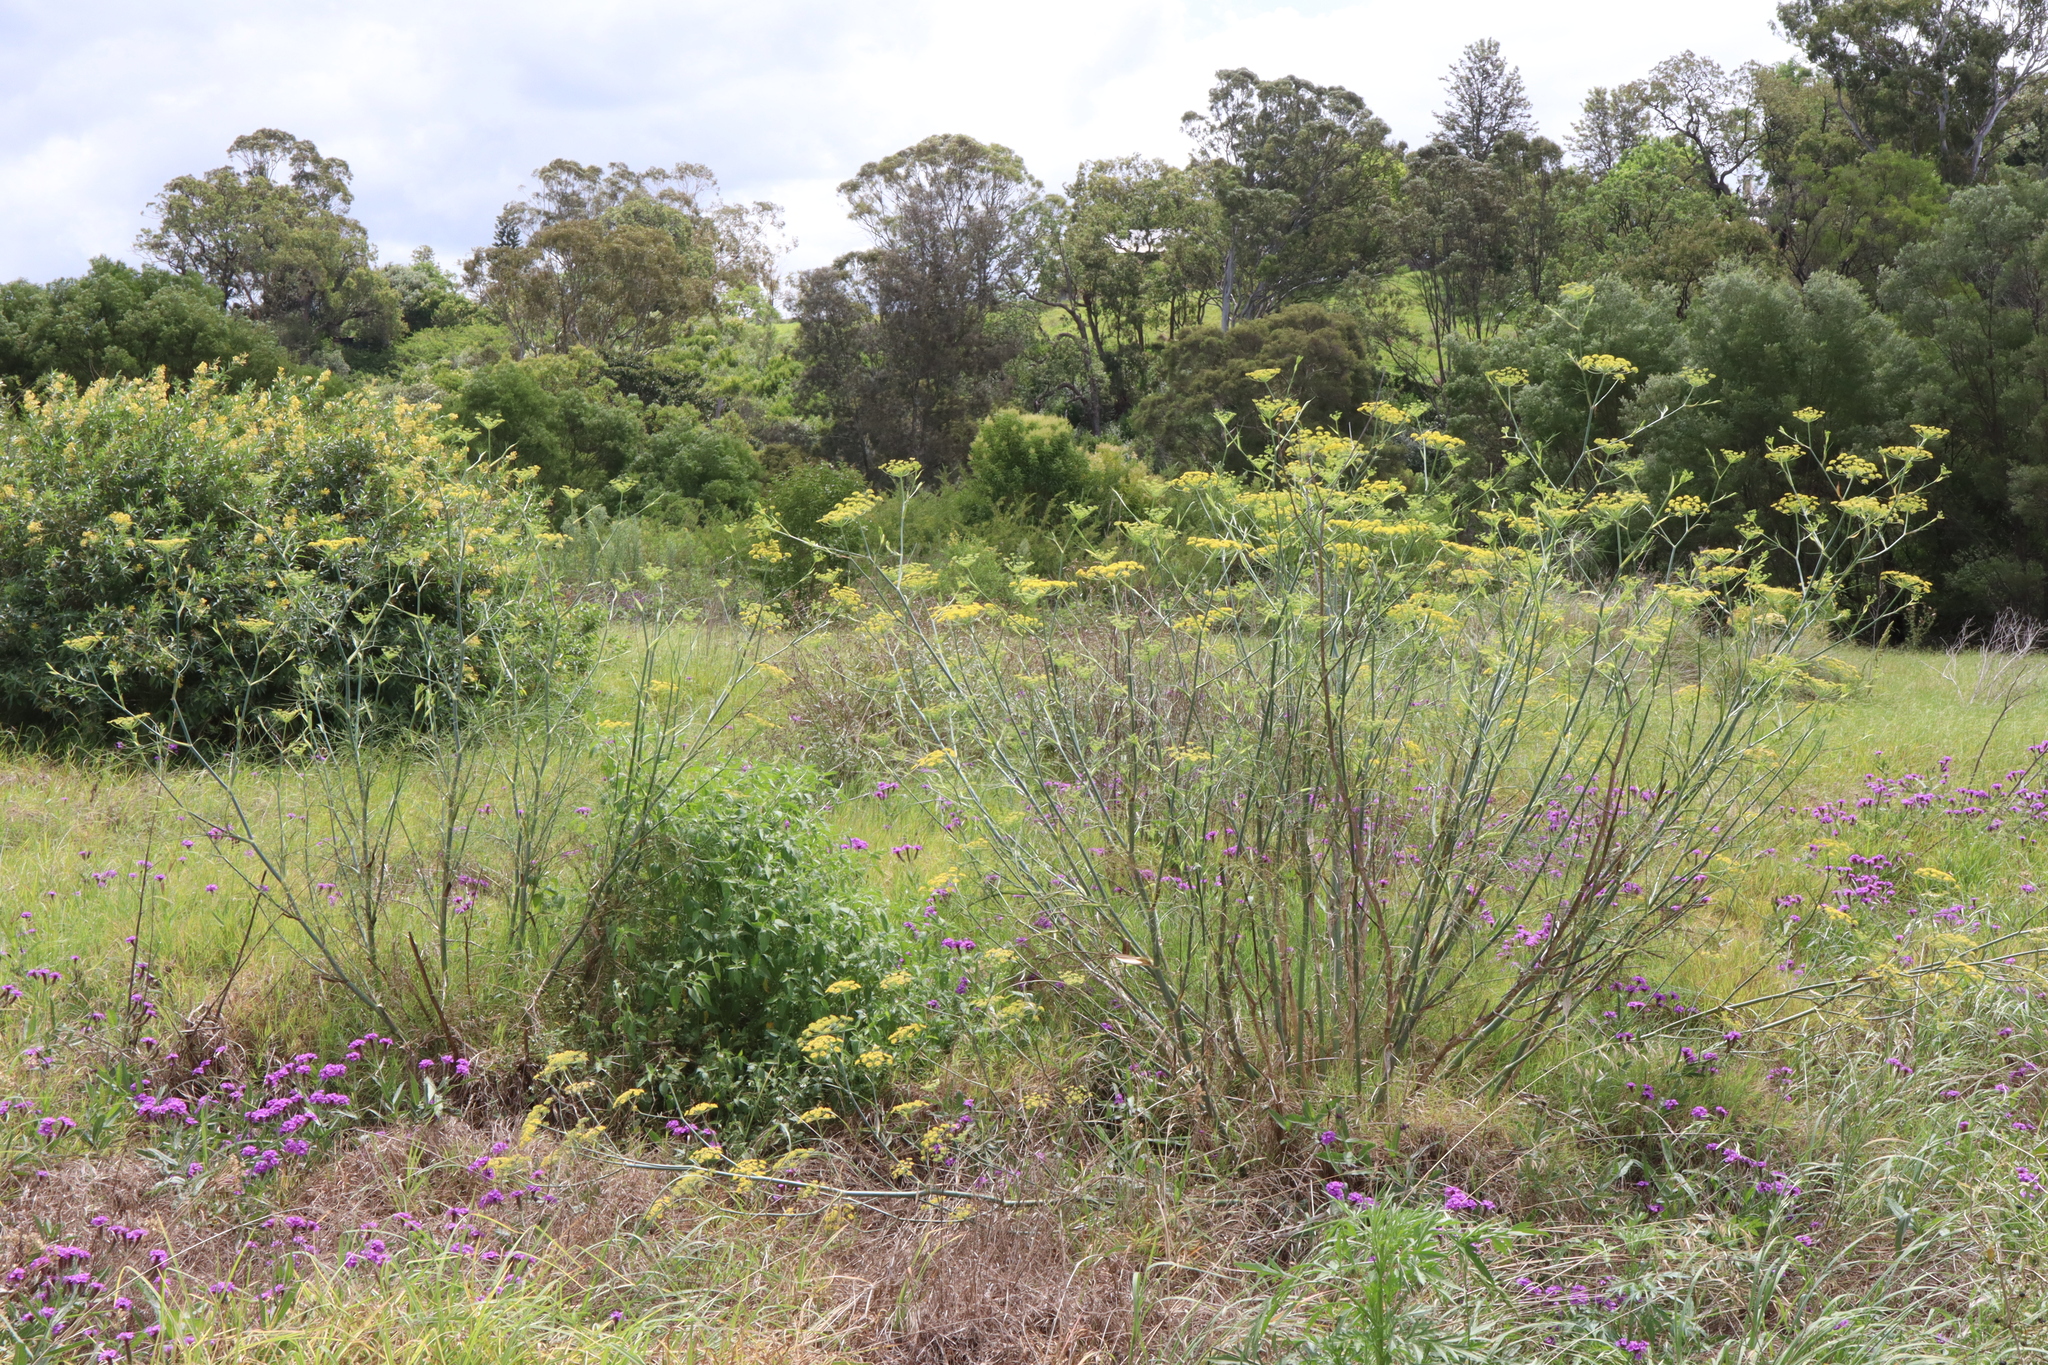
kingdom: Plantae
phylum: Tracheophyta
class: Magnoliopsida
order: Apiales
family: Apiaceae
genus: Foeniculum
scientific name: Foeniculum vulgare
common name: Fennel
